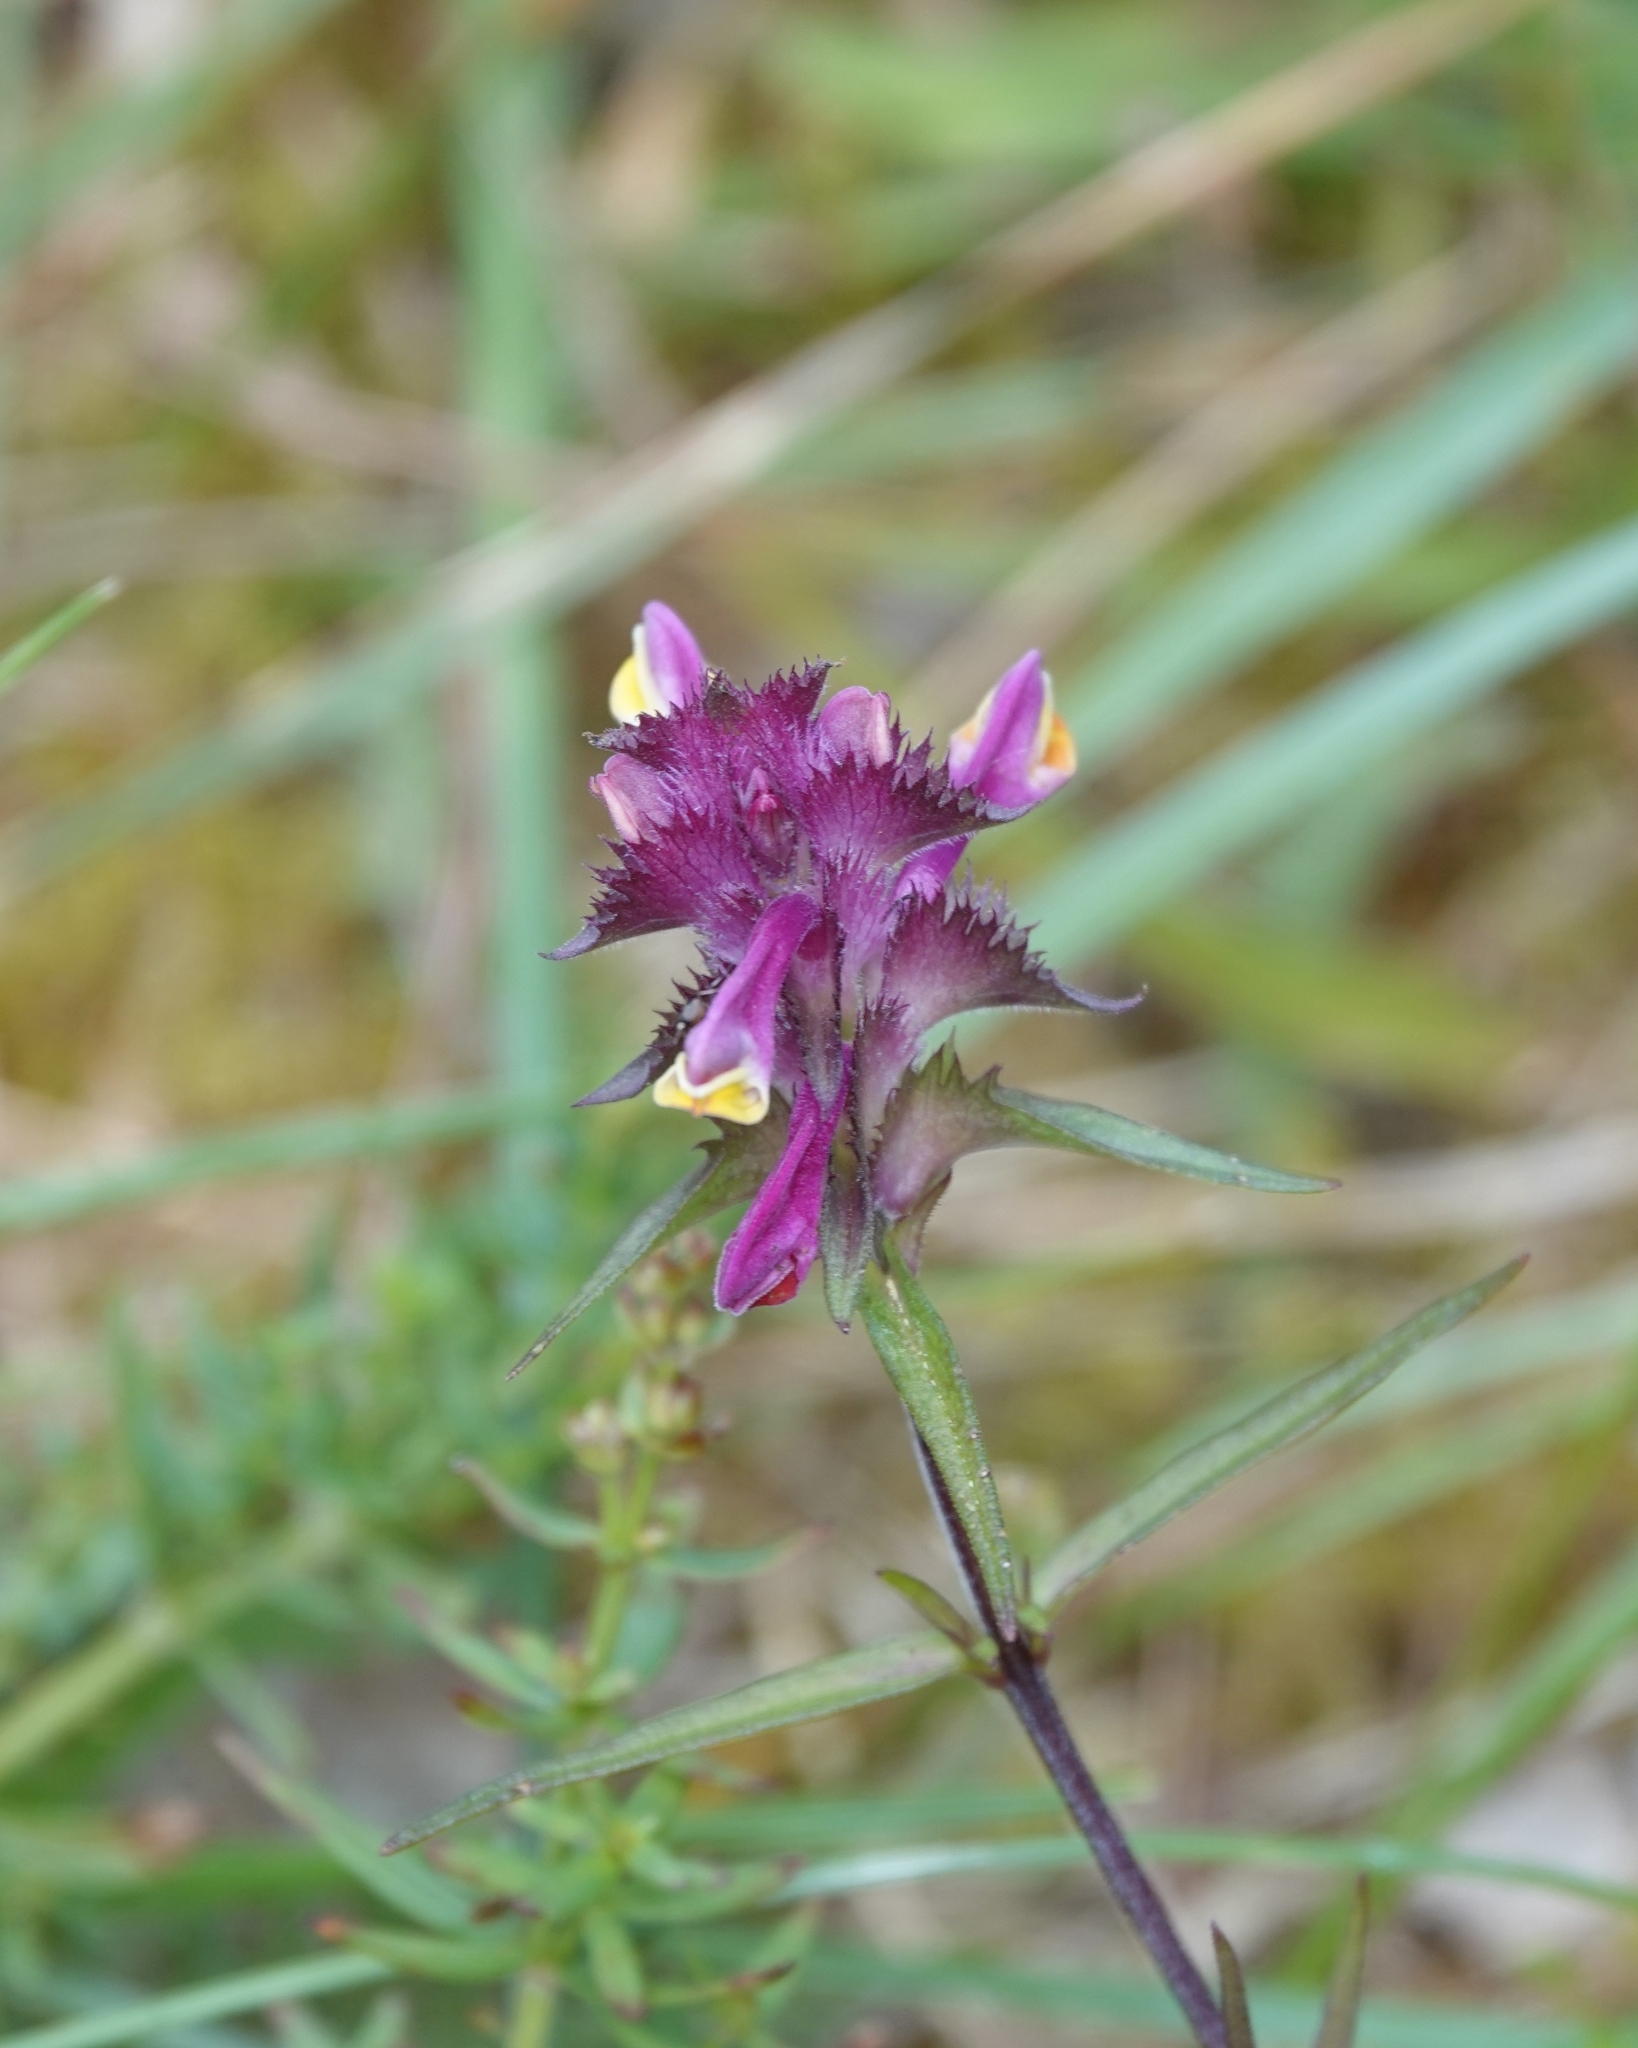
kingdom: Plantae
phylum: Tracheophyta
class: Magnoliopsida
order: Lamiales
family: Orobanchaceae
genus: Melampyrum
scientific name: Melampyrum cristatum
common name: Crested cow-wheat
